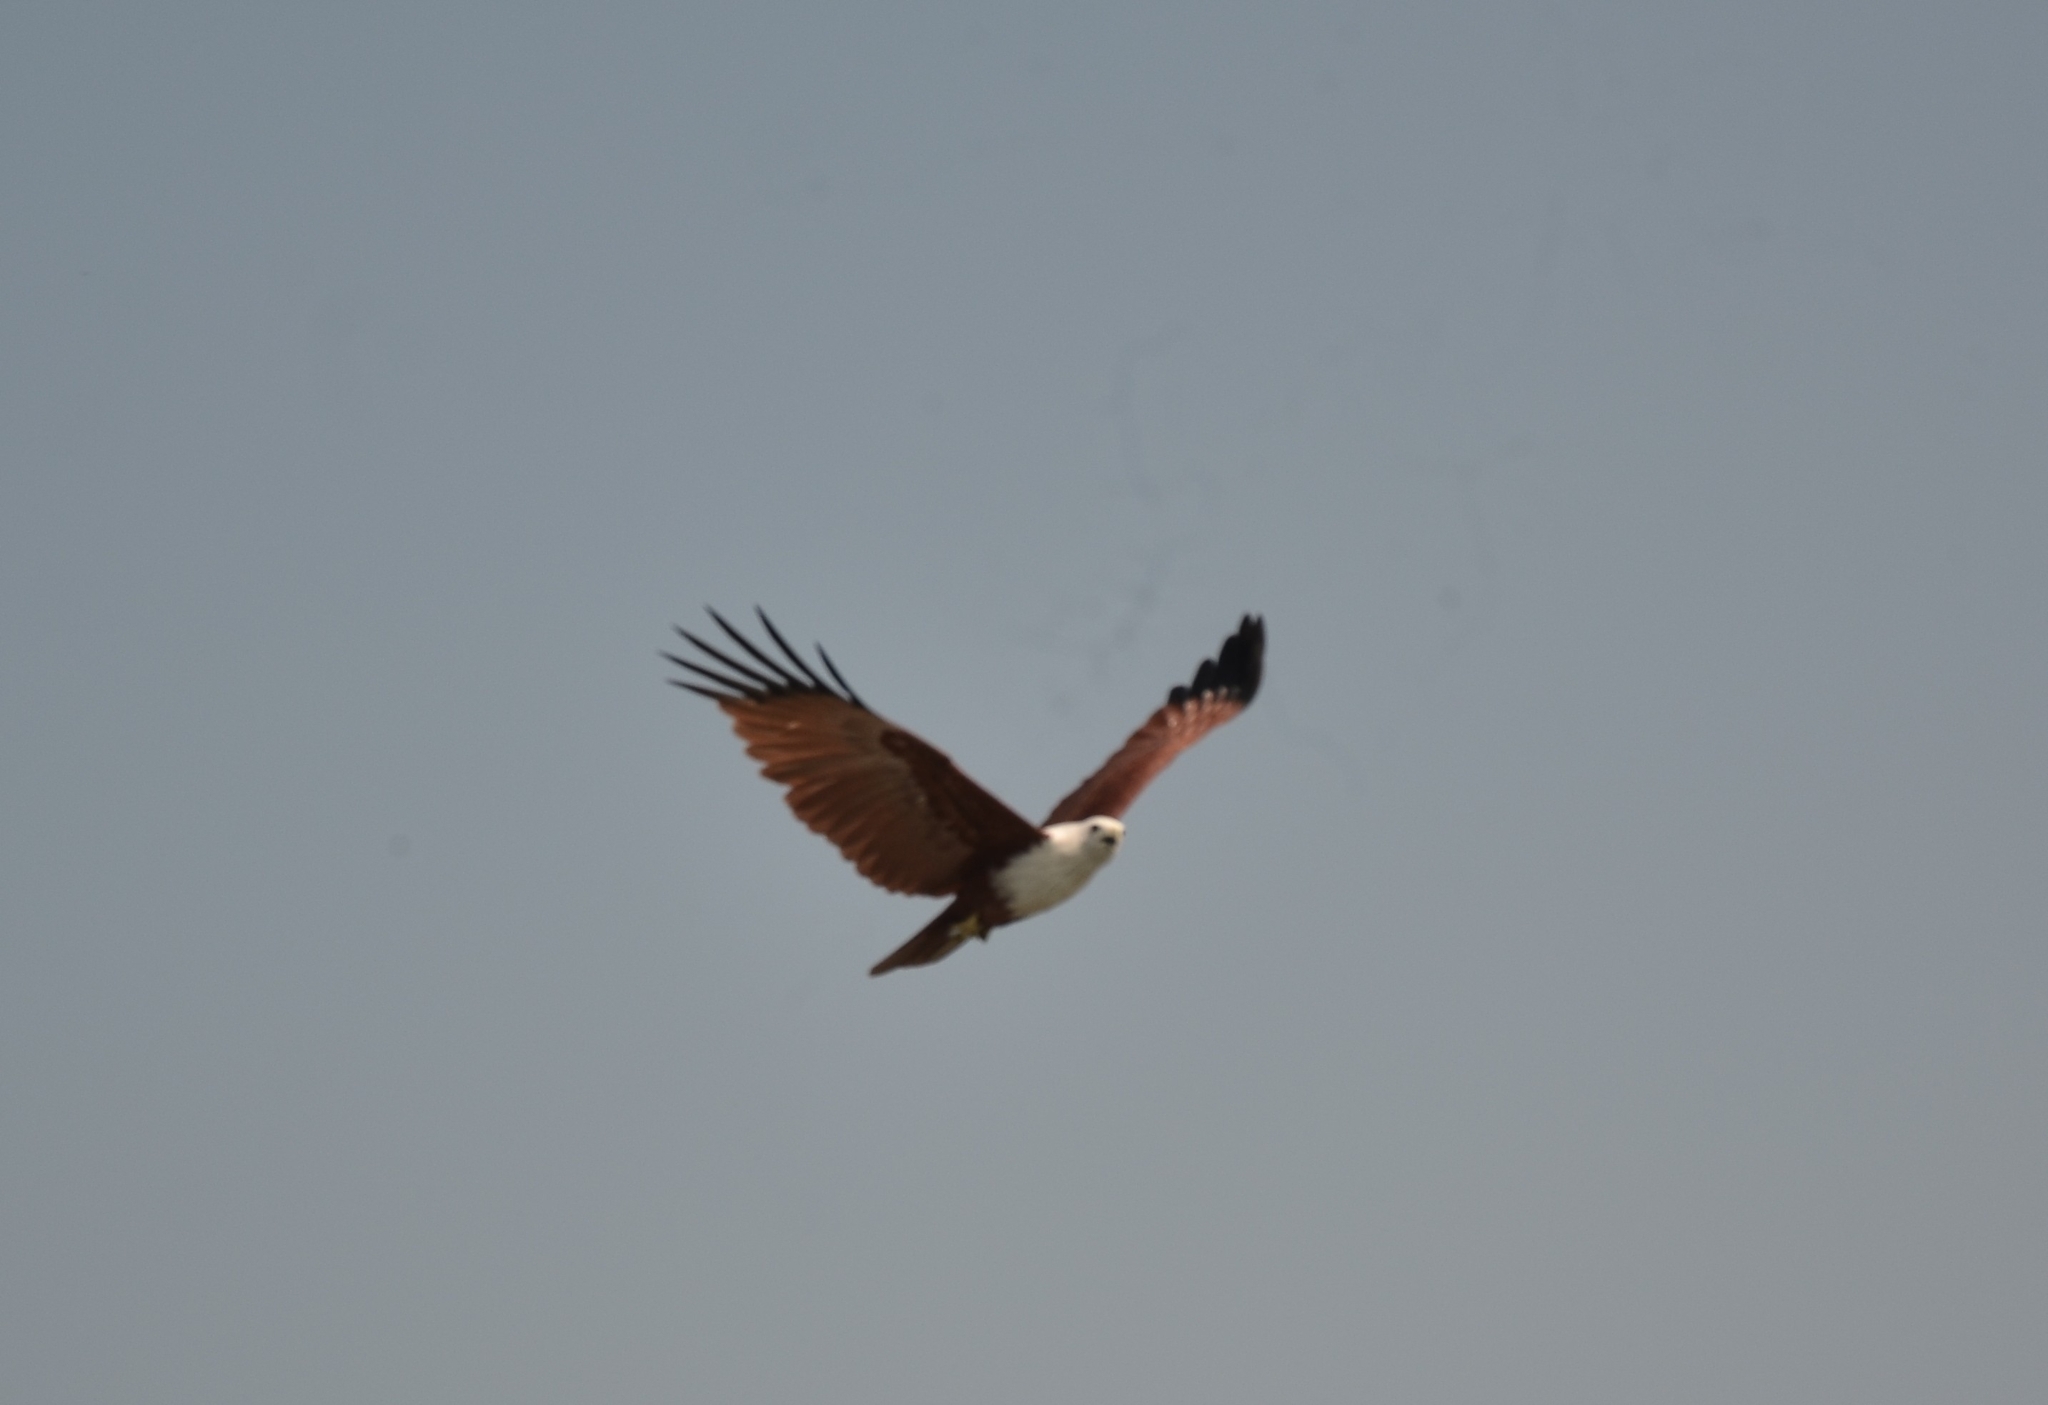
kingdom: Animalia
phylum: Chordata
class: Aves
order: Accipitriformes
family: Accipitridae
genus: Haliastur
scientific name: Haliastur indus
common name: Brahminy kite
